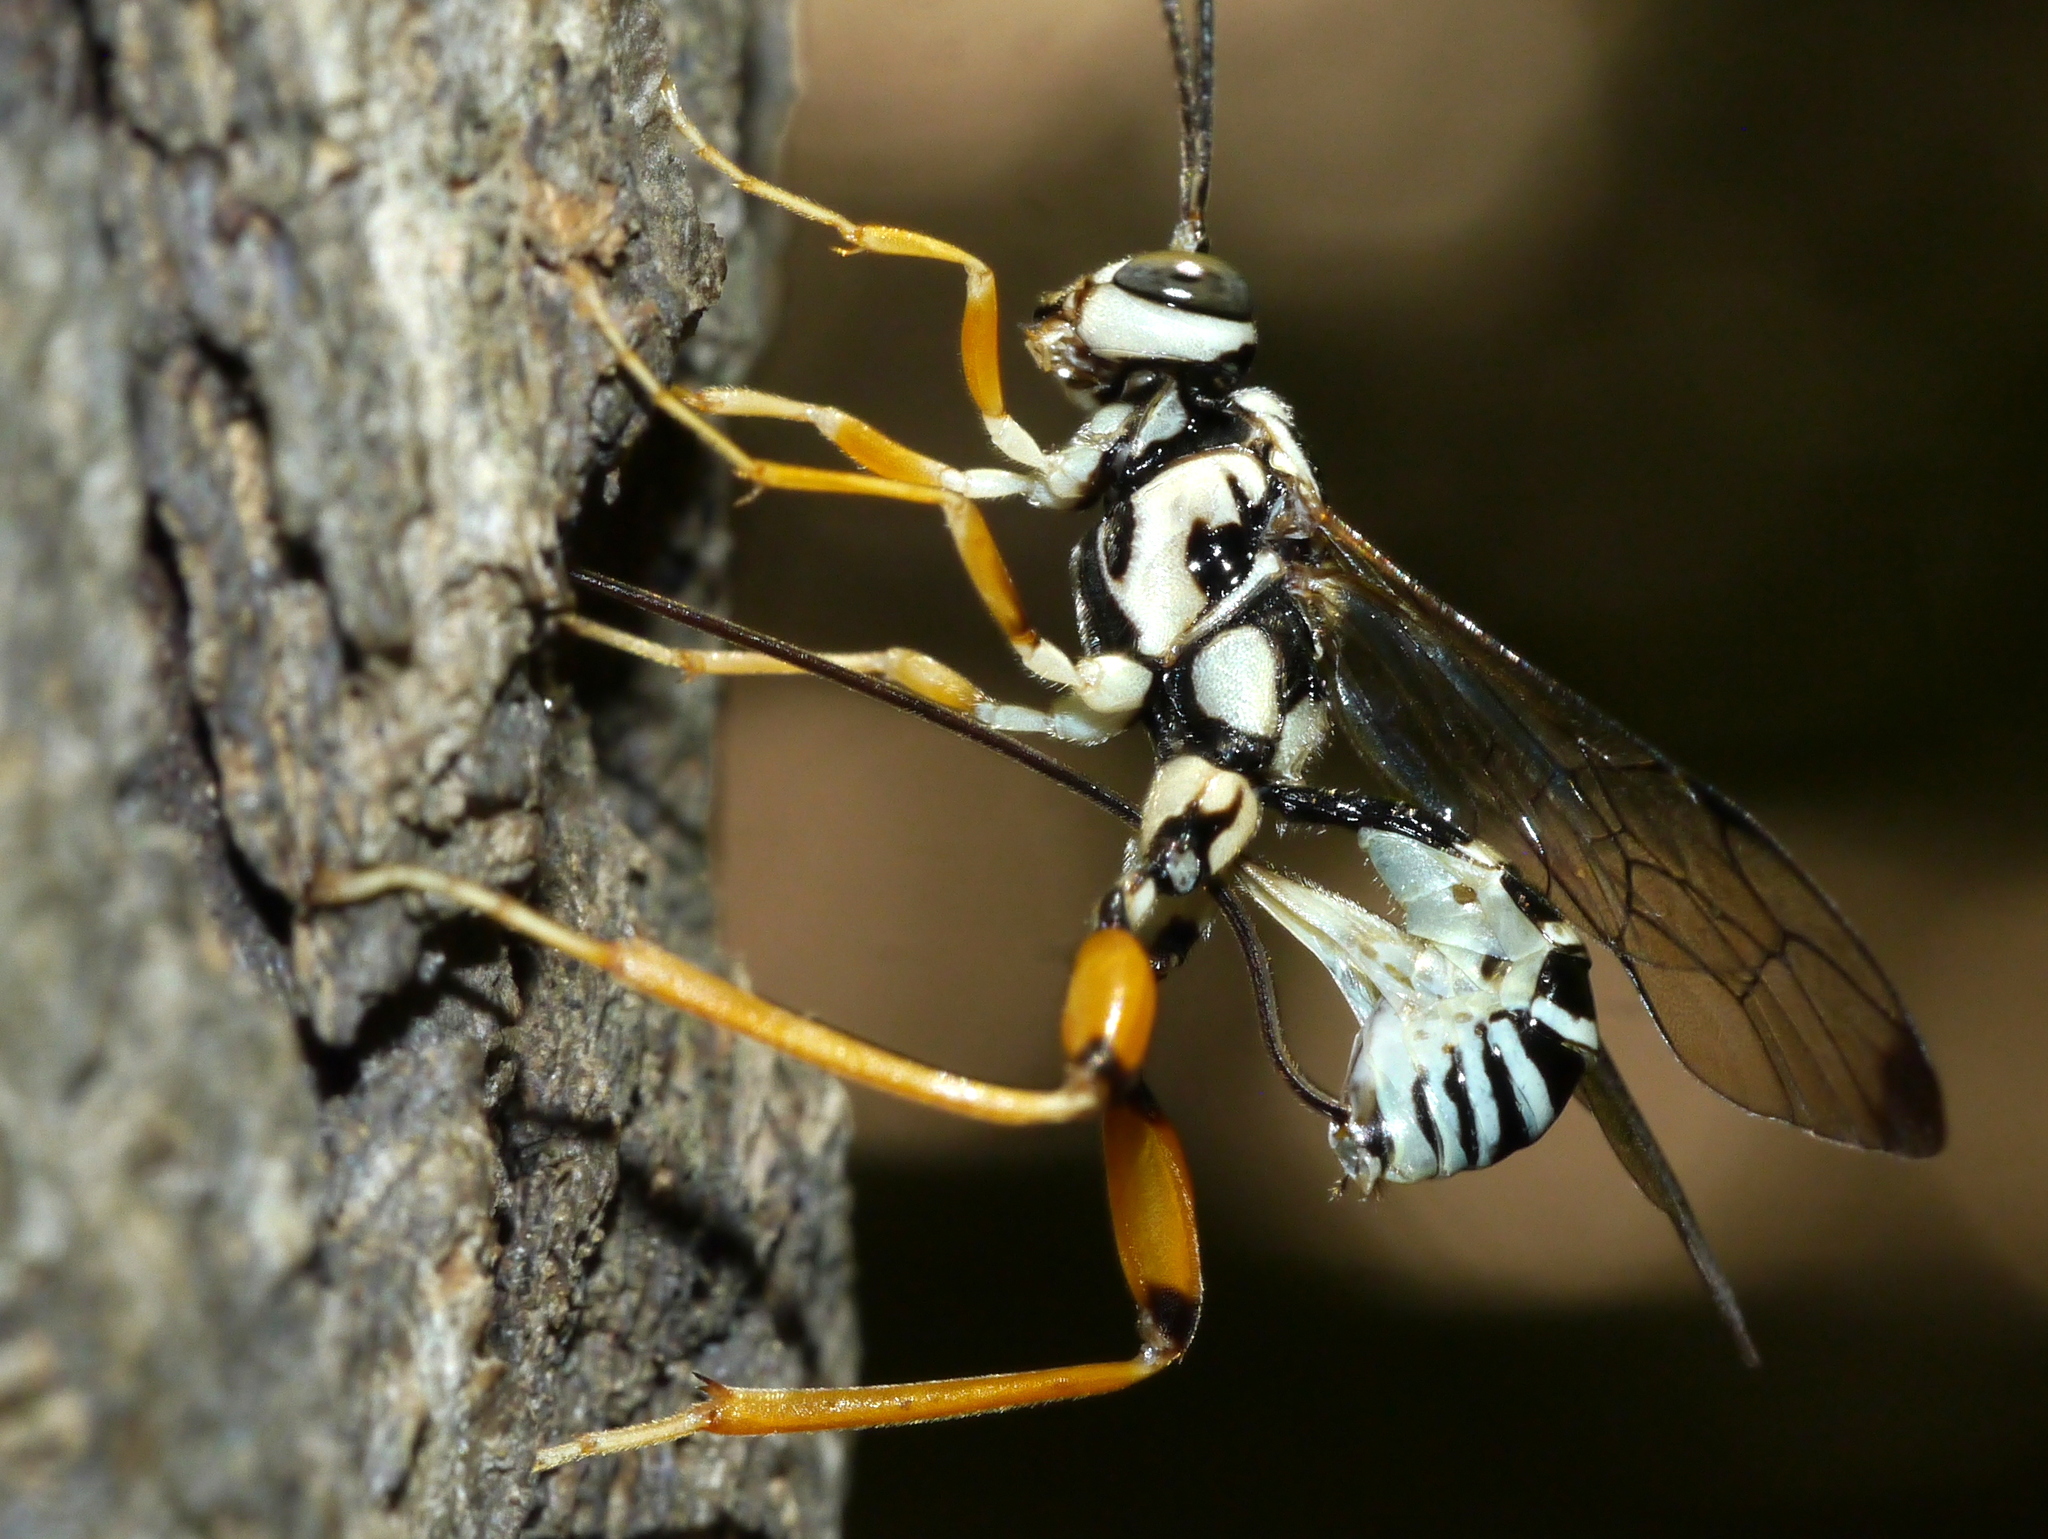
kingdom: Animalia
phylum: Arthropoda
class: Insecta
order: Hymenoptera
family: Ichneumonidae
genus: Arotes
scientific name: Arotes decorus
